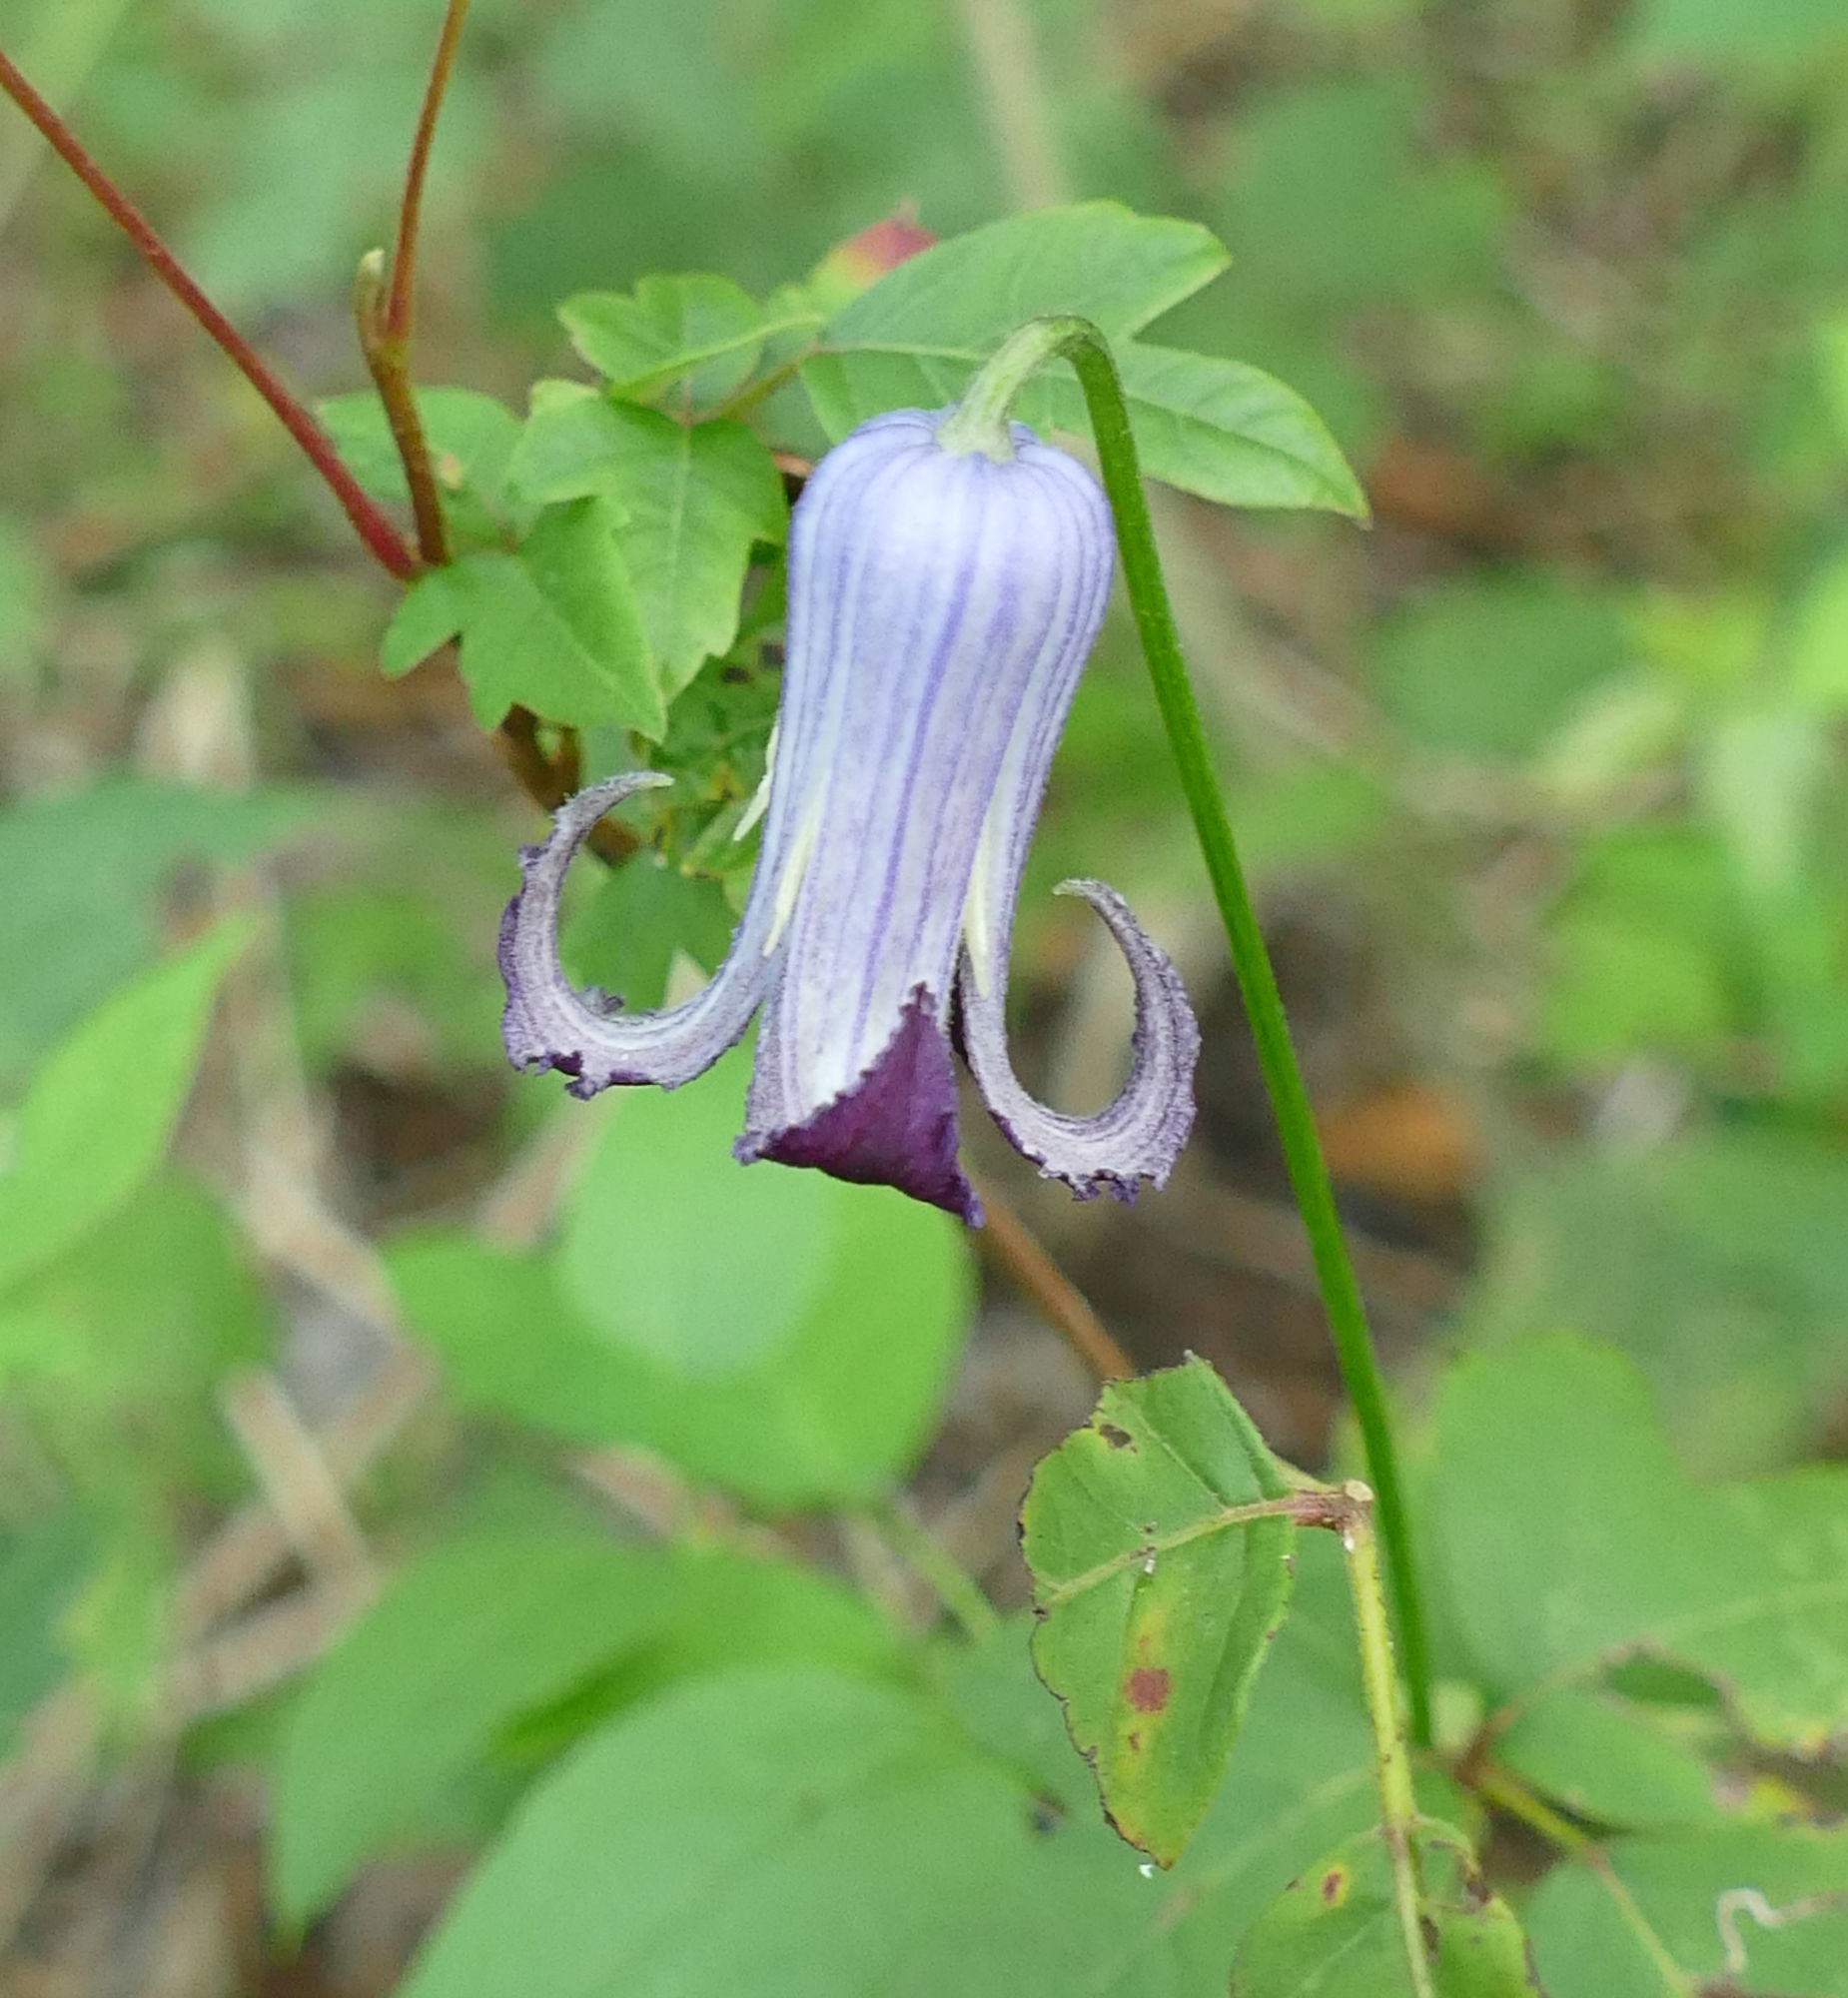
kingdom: Plantae
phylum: Tracheophyta
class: Magnoliopsida
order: Ranunculales
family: Ranunculaceae
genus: Clematis
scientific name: Clematis pitcheri
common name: Bellflower clematis
